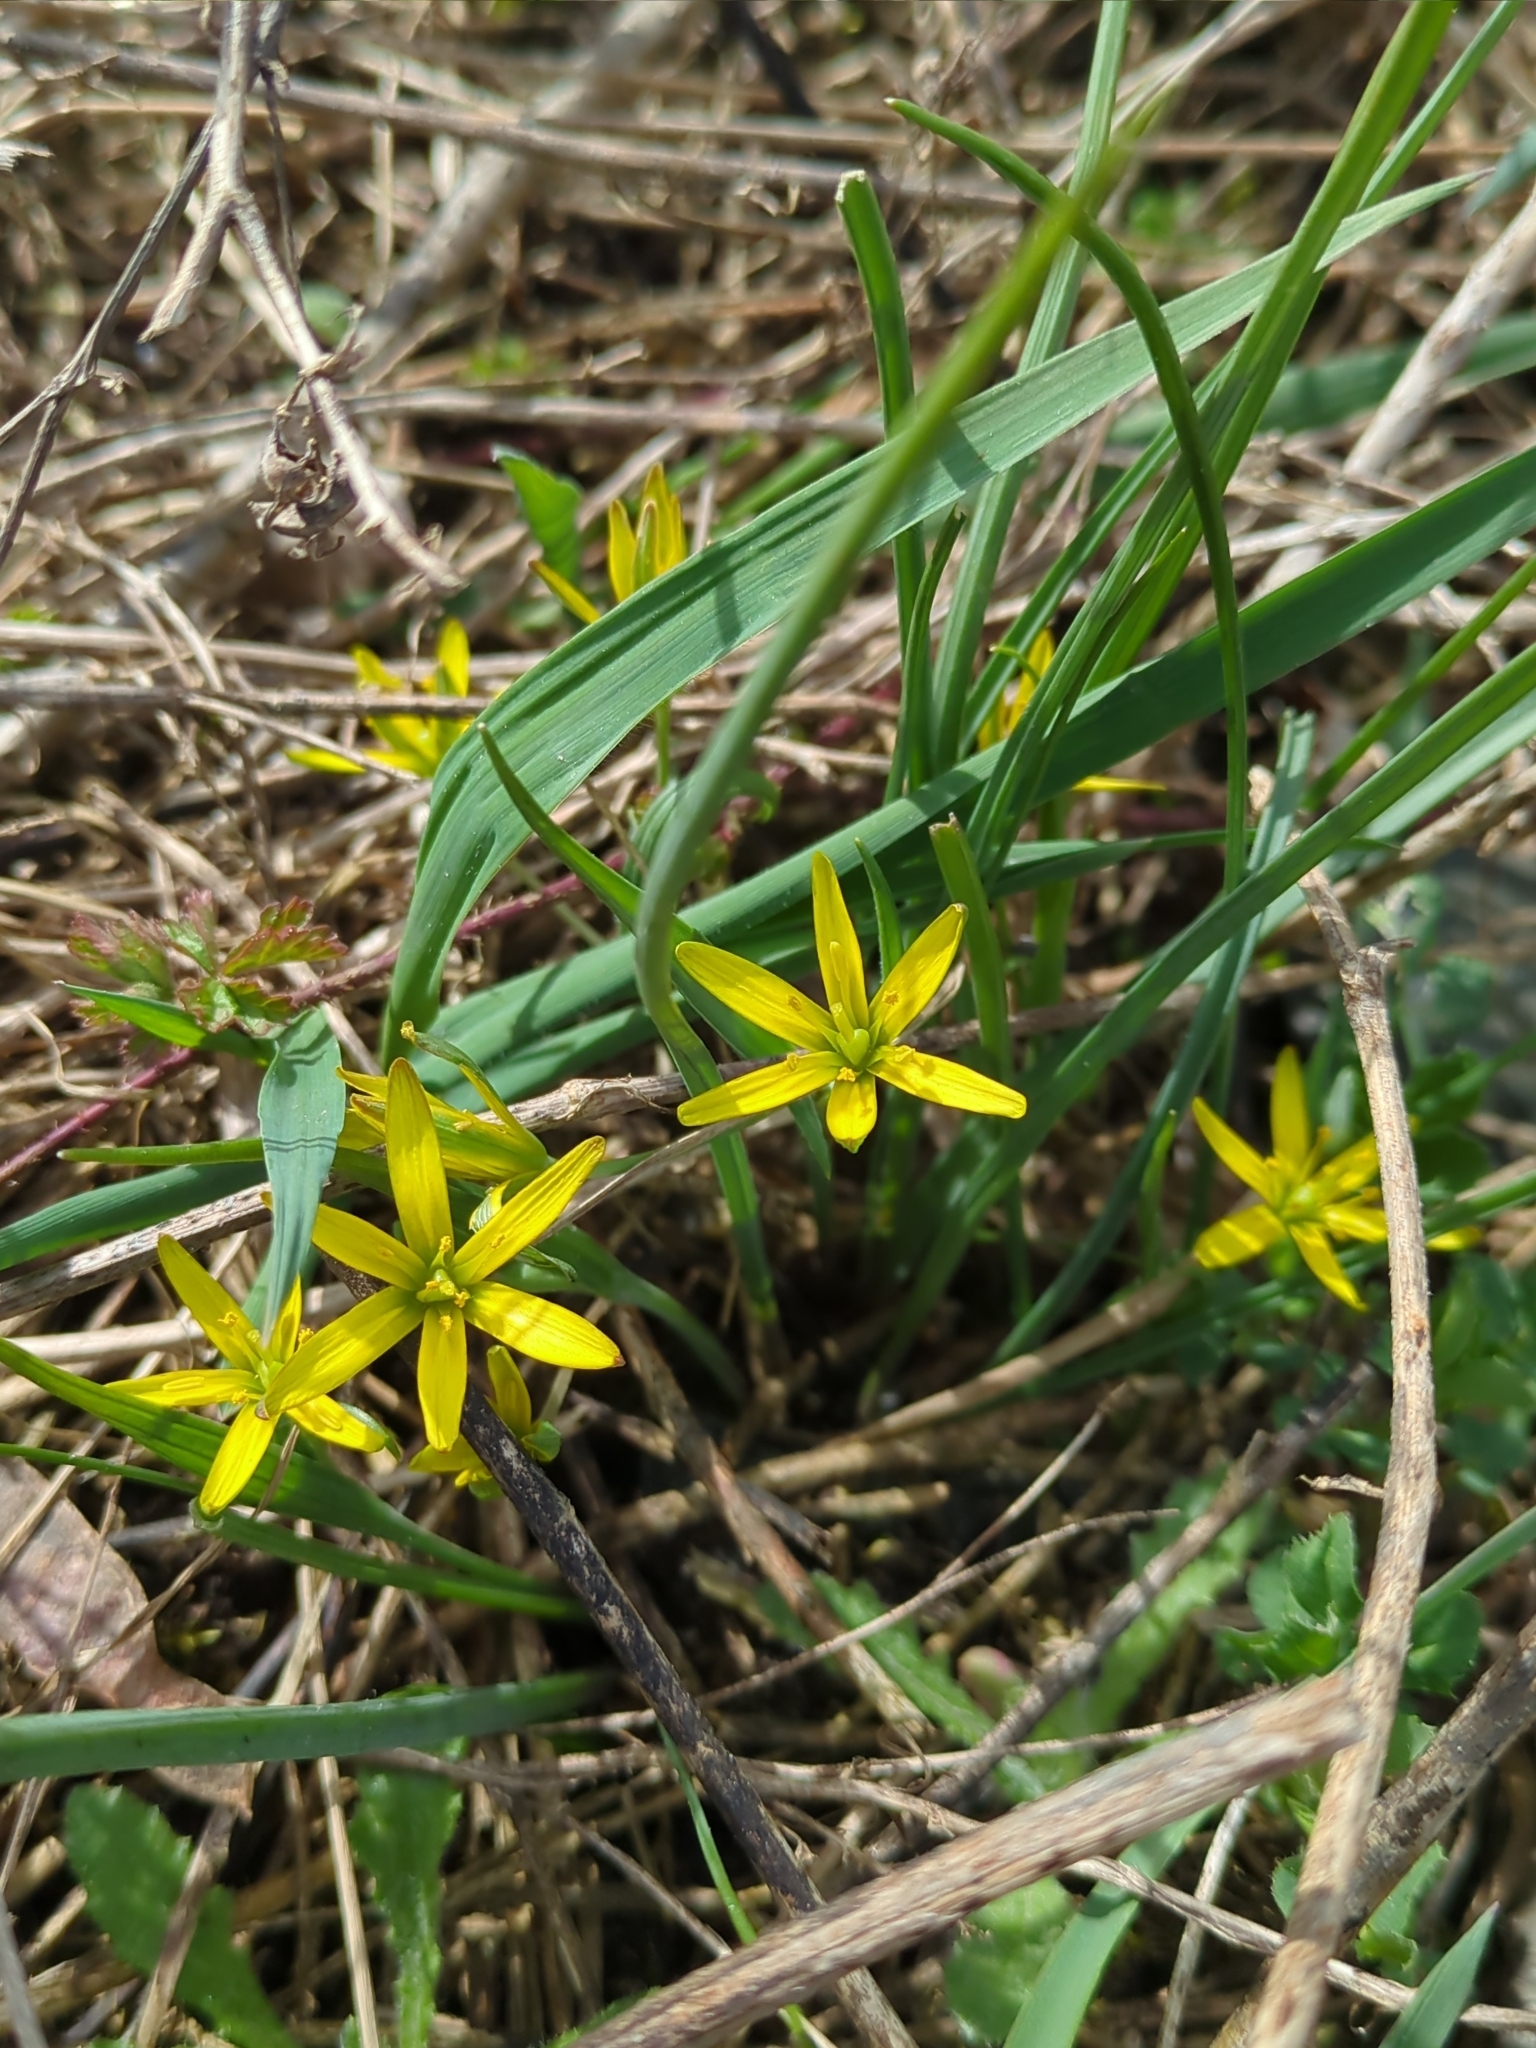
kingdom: Plantae
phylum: Tracheophyta
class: Liliopsida
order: Liliales
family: Liliaceae
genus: Gagea
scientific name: Gagea pratensis
